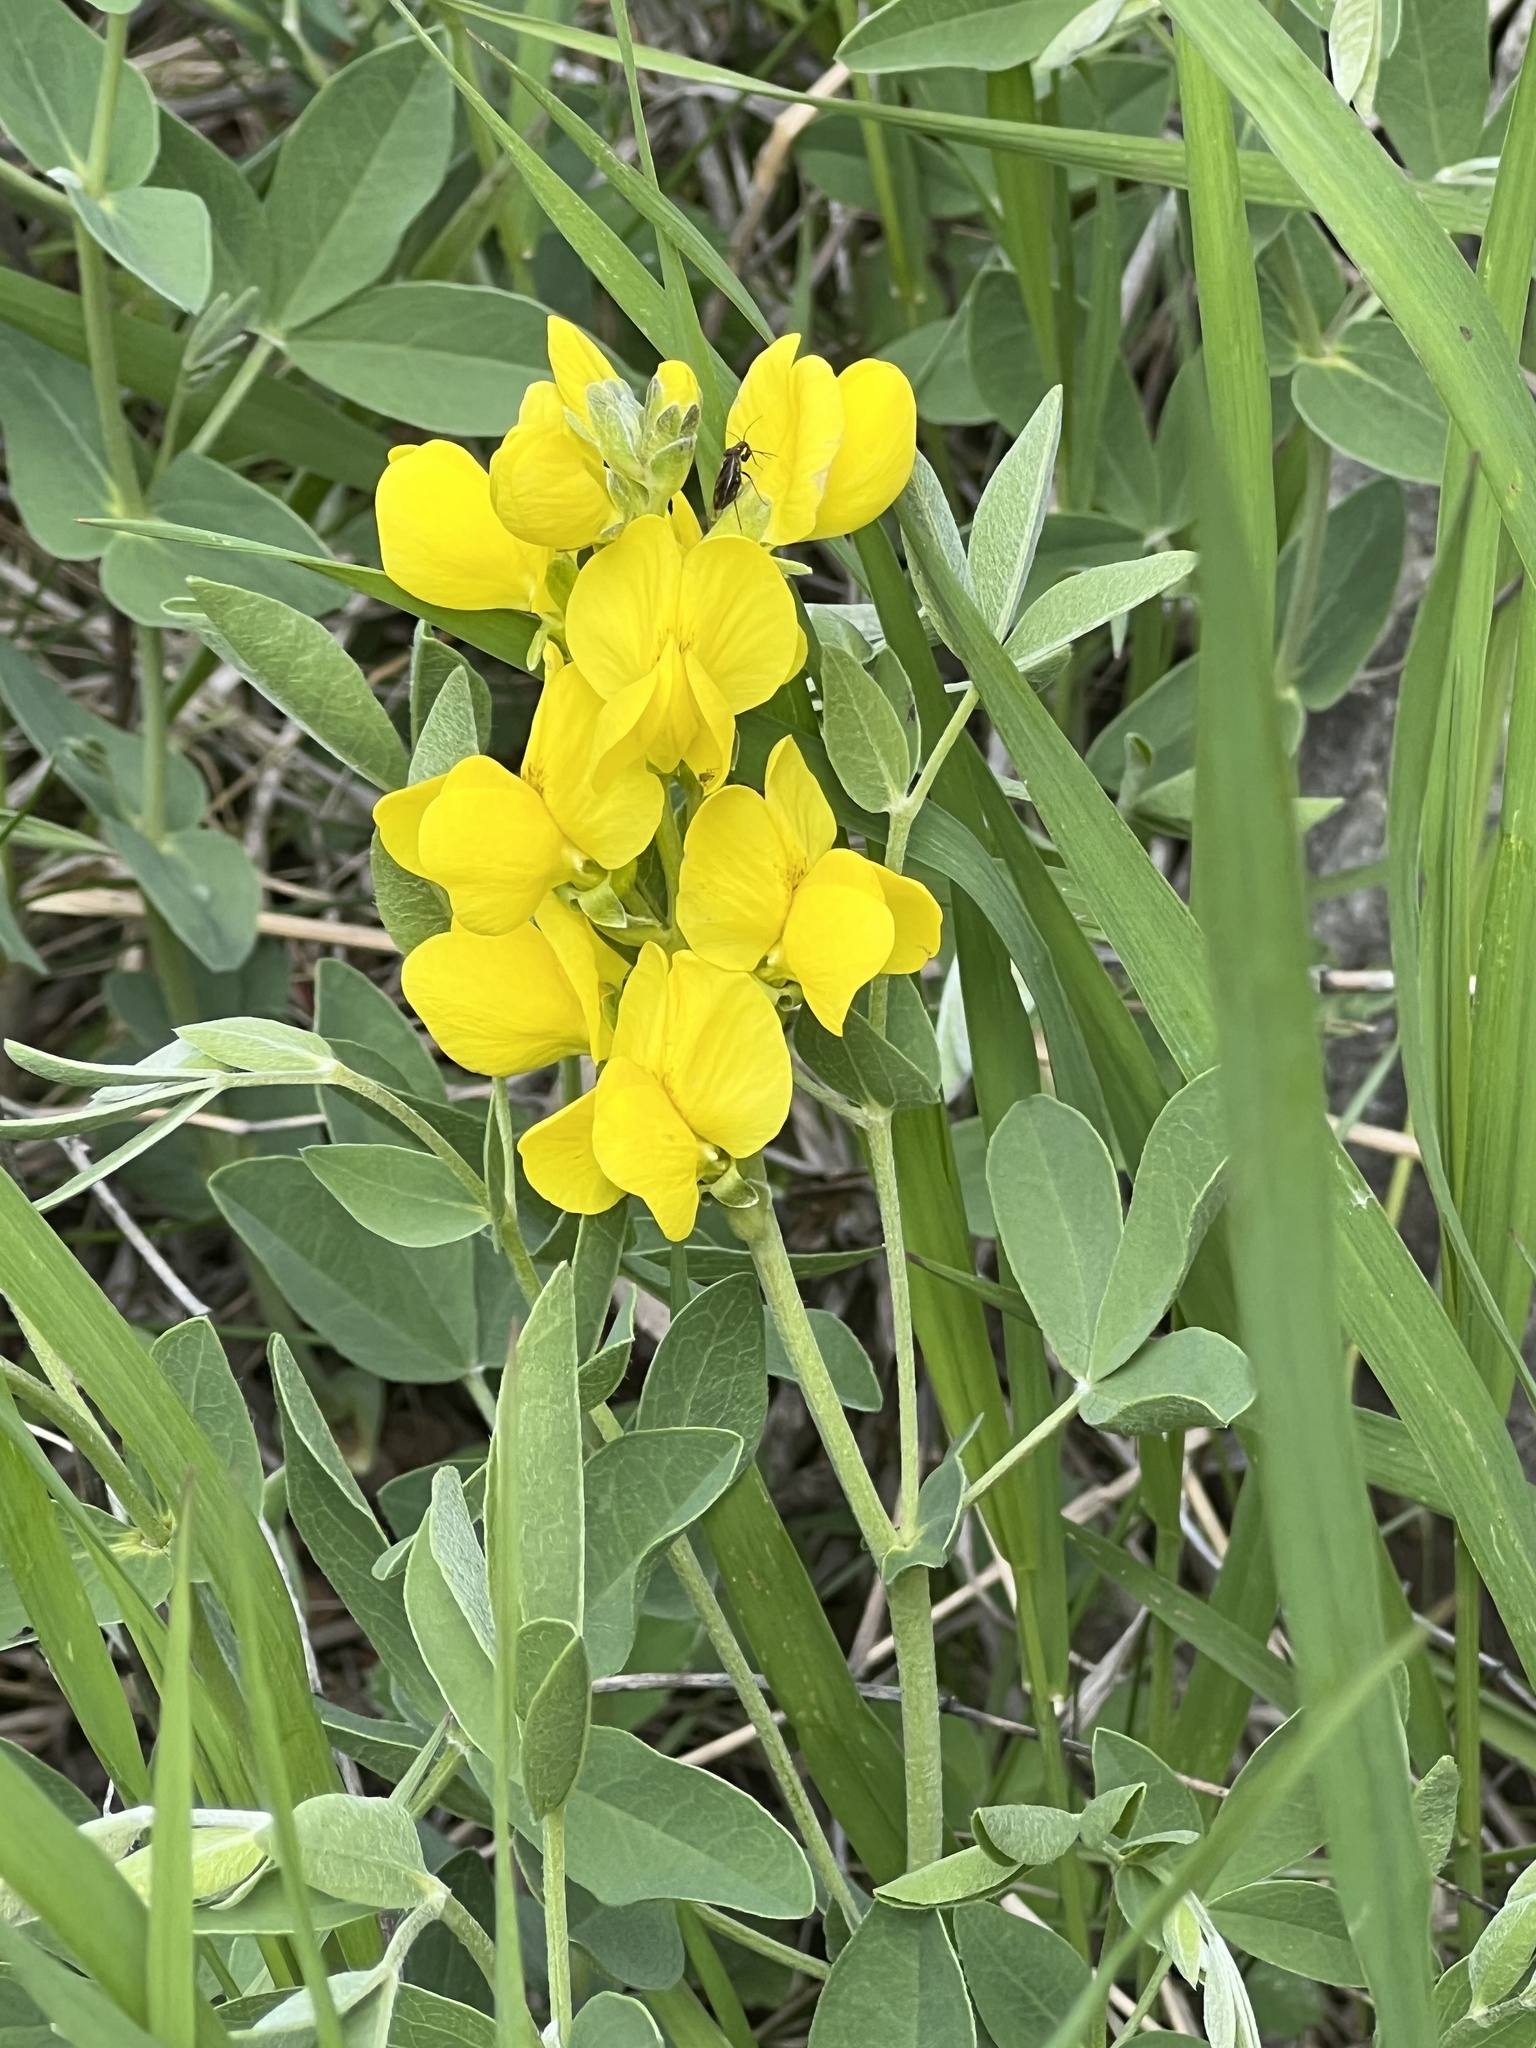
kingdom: Plantae
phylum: Tracheophyta
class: Magnoliopsida
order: Fabales
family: Fabaceae
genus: Thermopsis
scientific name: Thermopsis rhombifolia
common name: Circle-pod-pea
